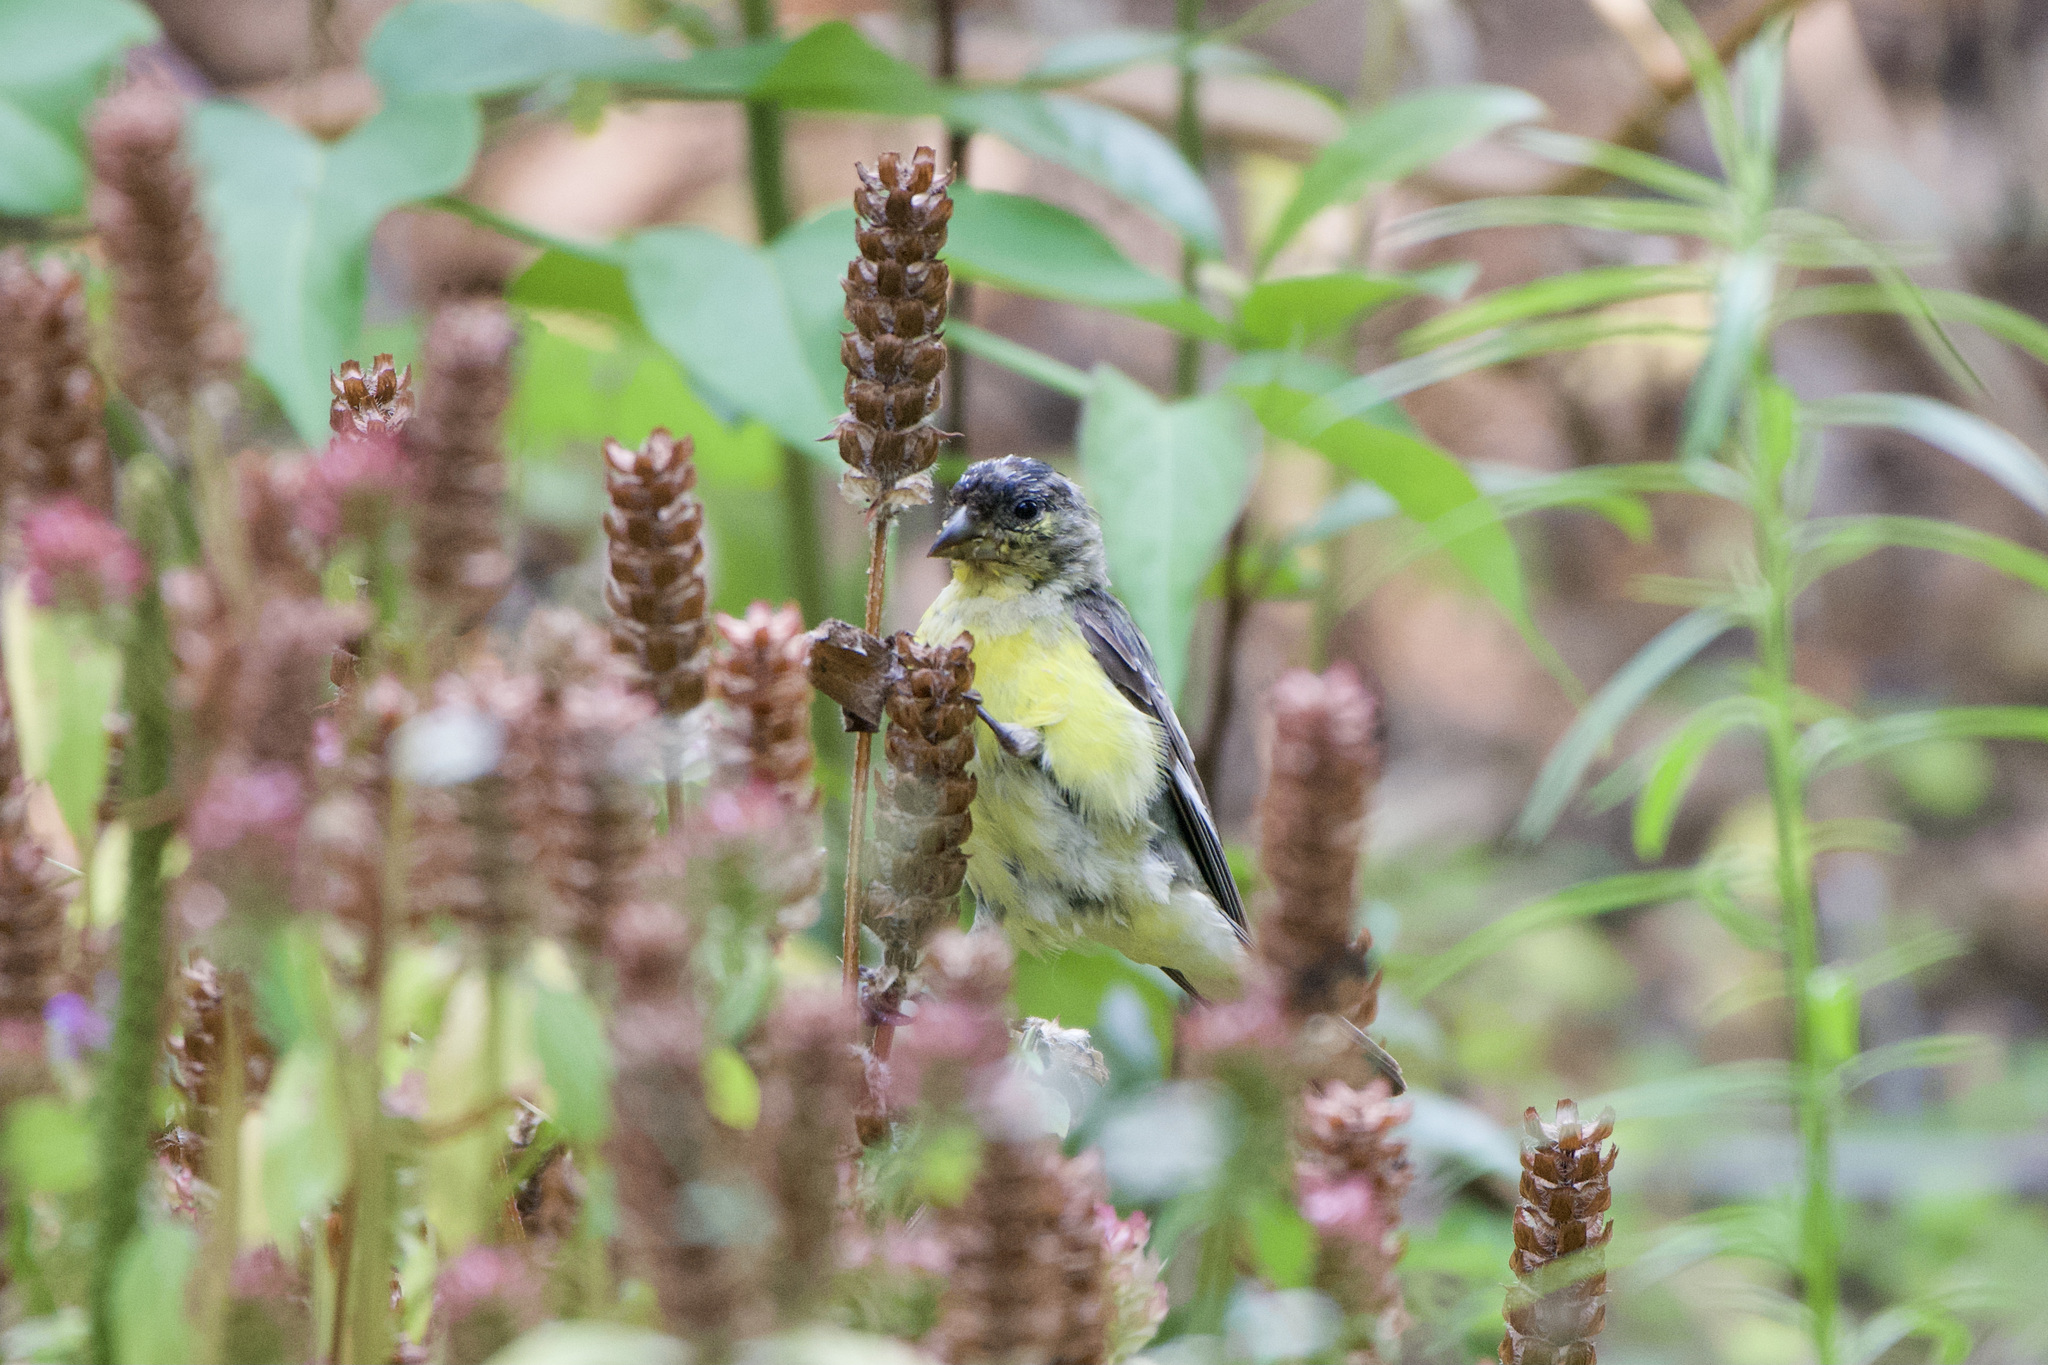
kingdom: Animalia
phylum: Chordata
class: Aves
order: Passeriformes
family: Fringillidae
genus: Spinus
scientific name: Spinus psaltria
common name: Lesser goldfinch
